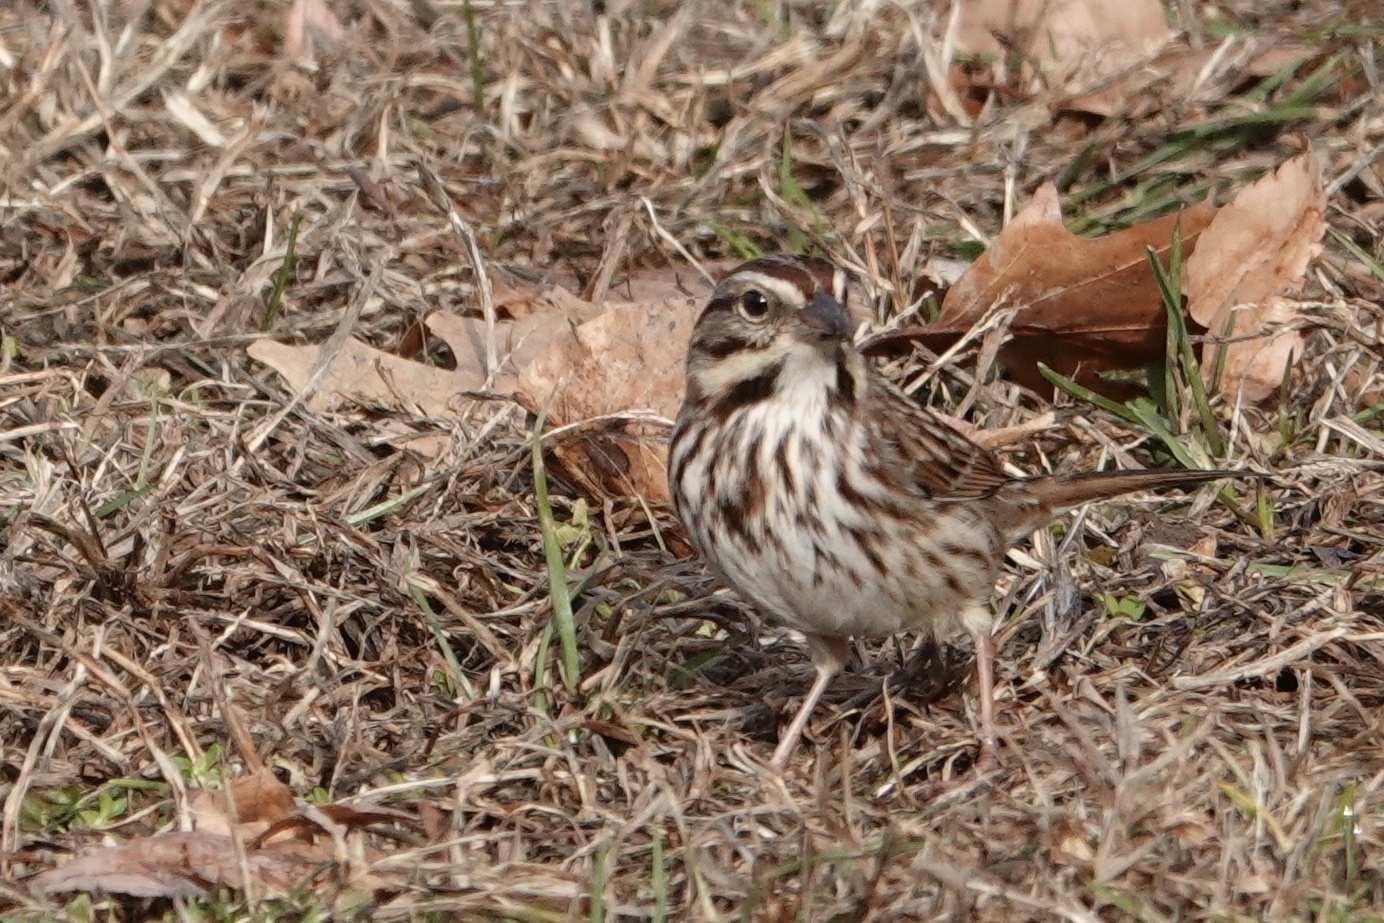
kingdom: Animalia
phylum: Chordata
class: Aves
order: Passeriformes
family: Passerellidae
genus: Melospiza
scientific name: Melospiza melodia
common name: Song sparrow
